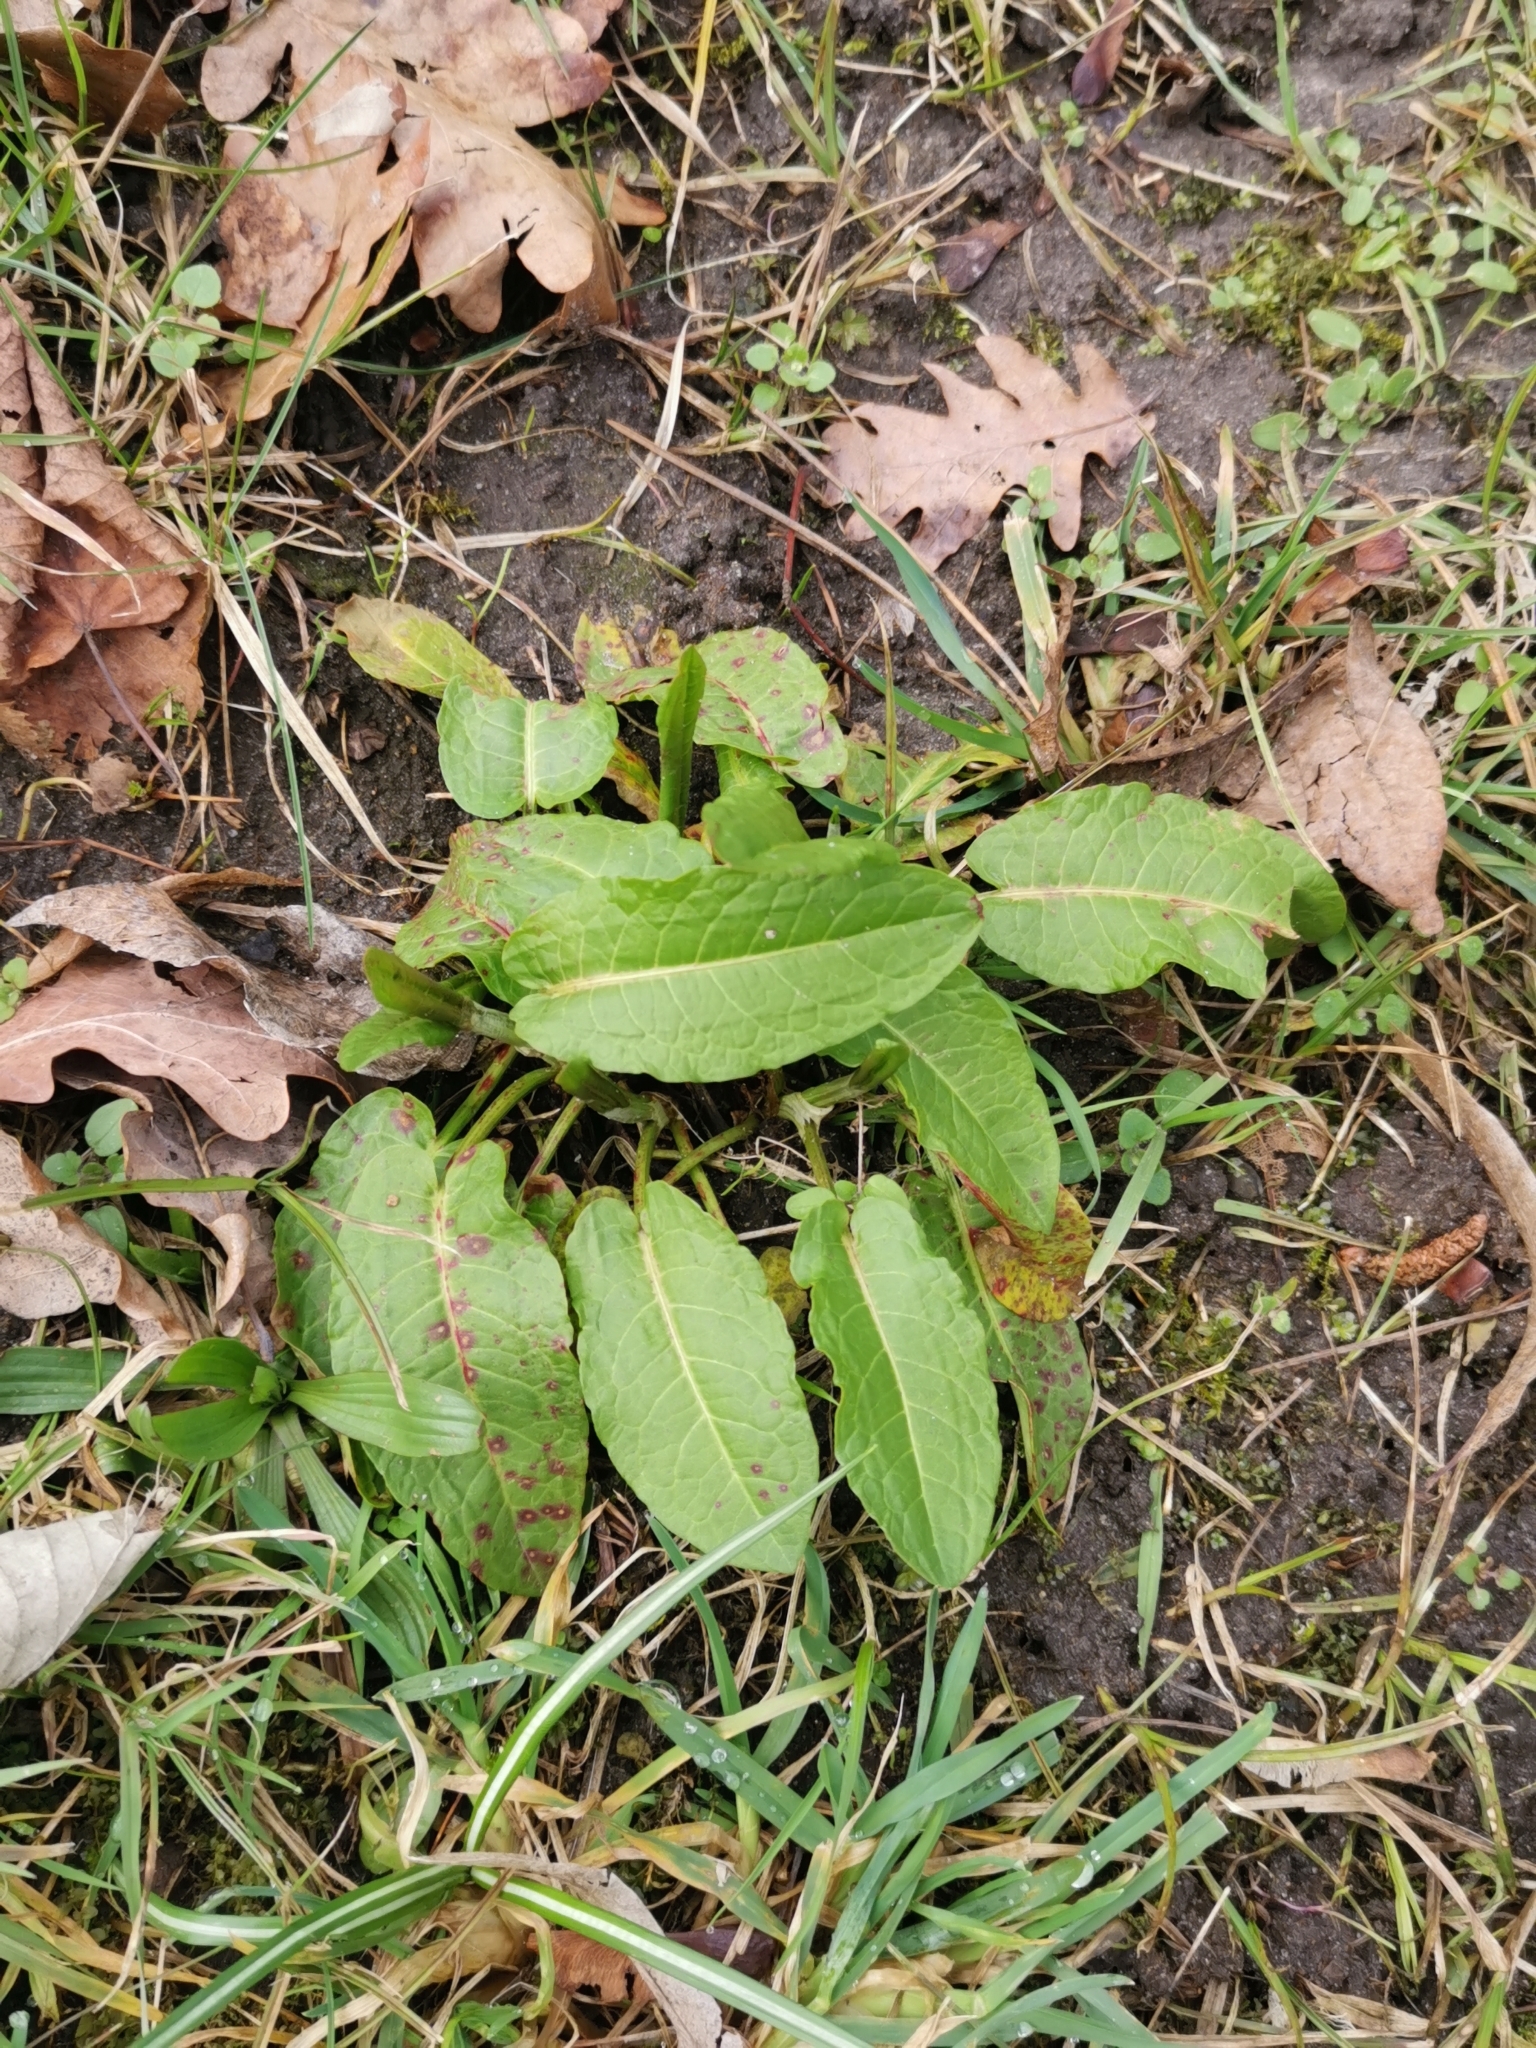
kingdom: Plantae
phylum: Tracheophyta
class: Magnoliopsida
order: Caryophyllales
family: Polygonaceae
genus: Rumex
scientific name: Rumex obtusifolius
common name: Bitter dock
